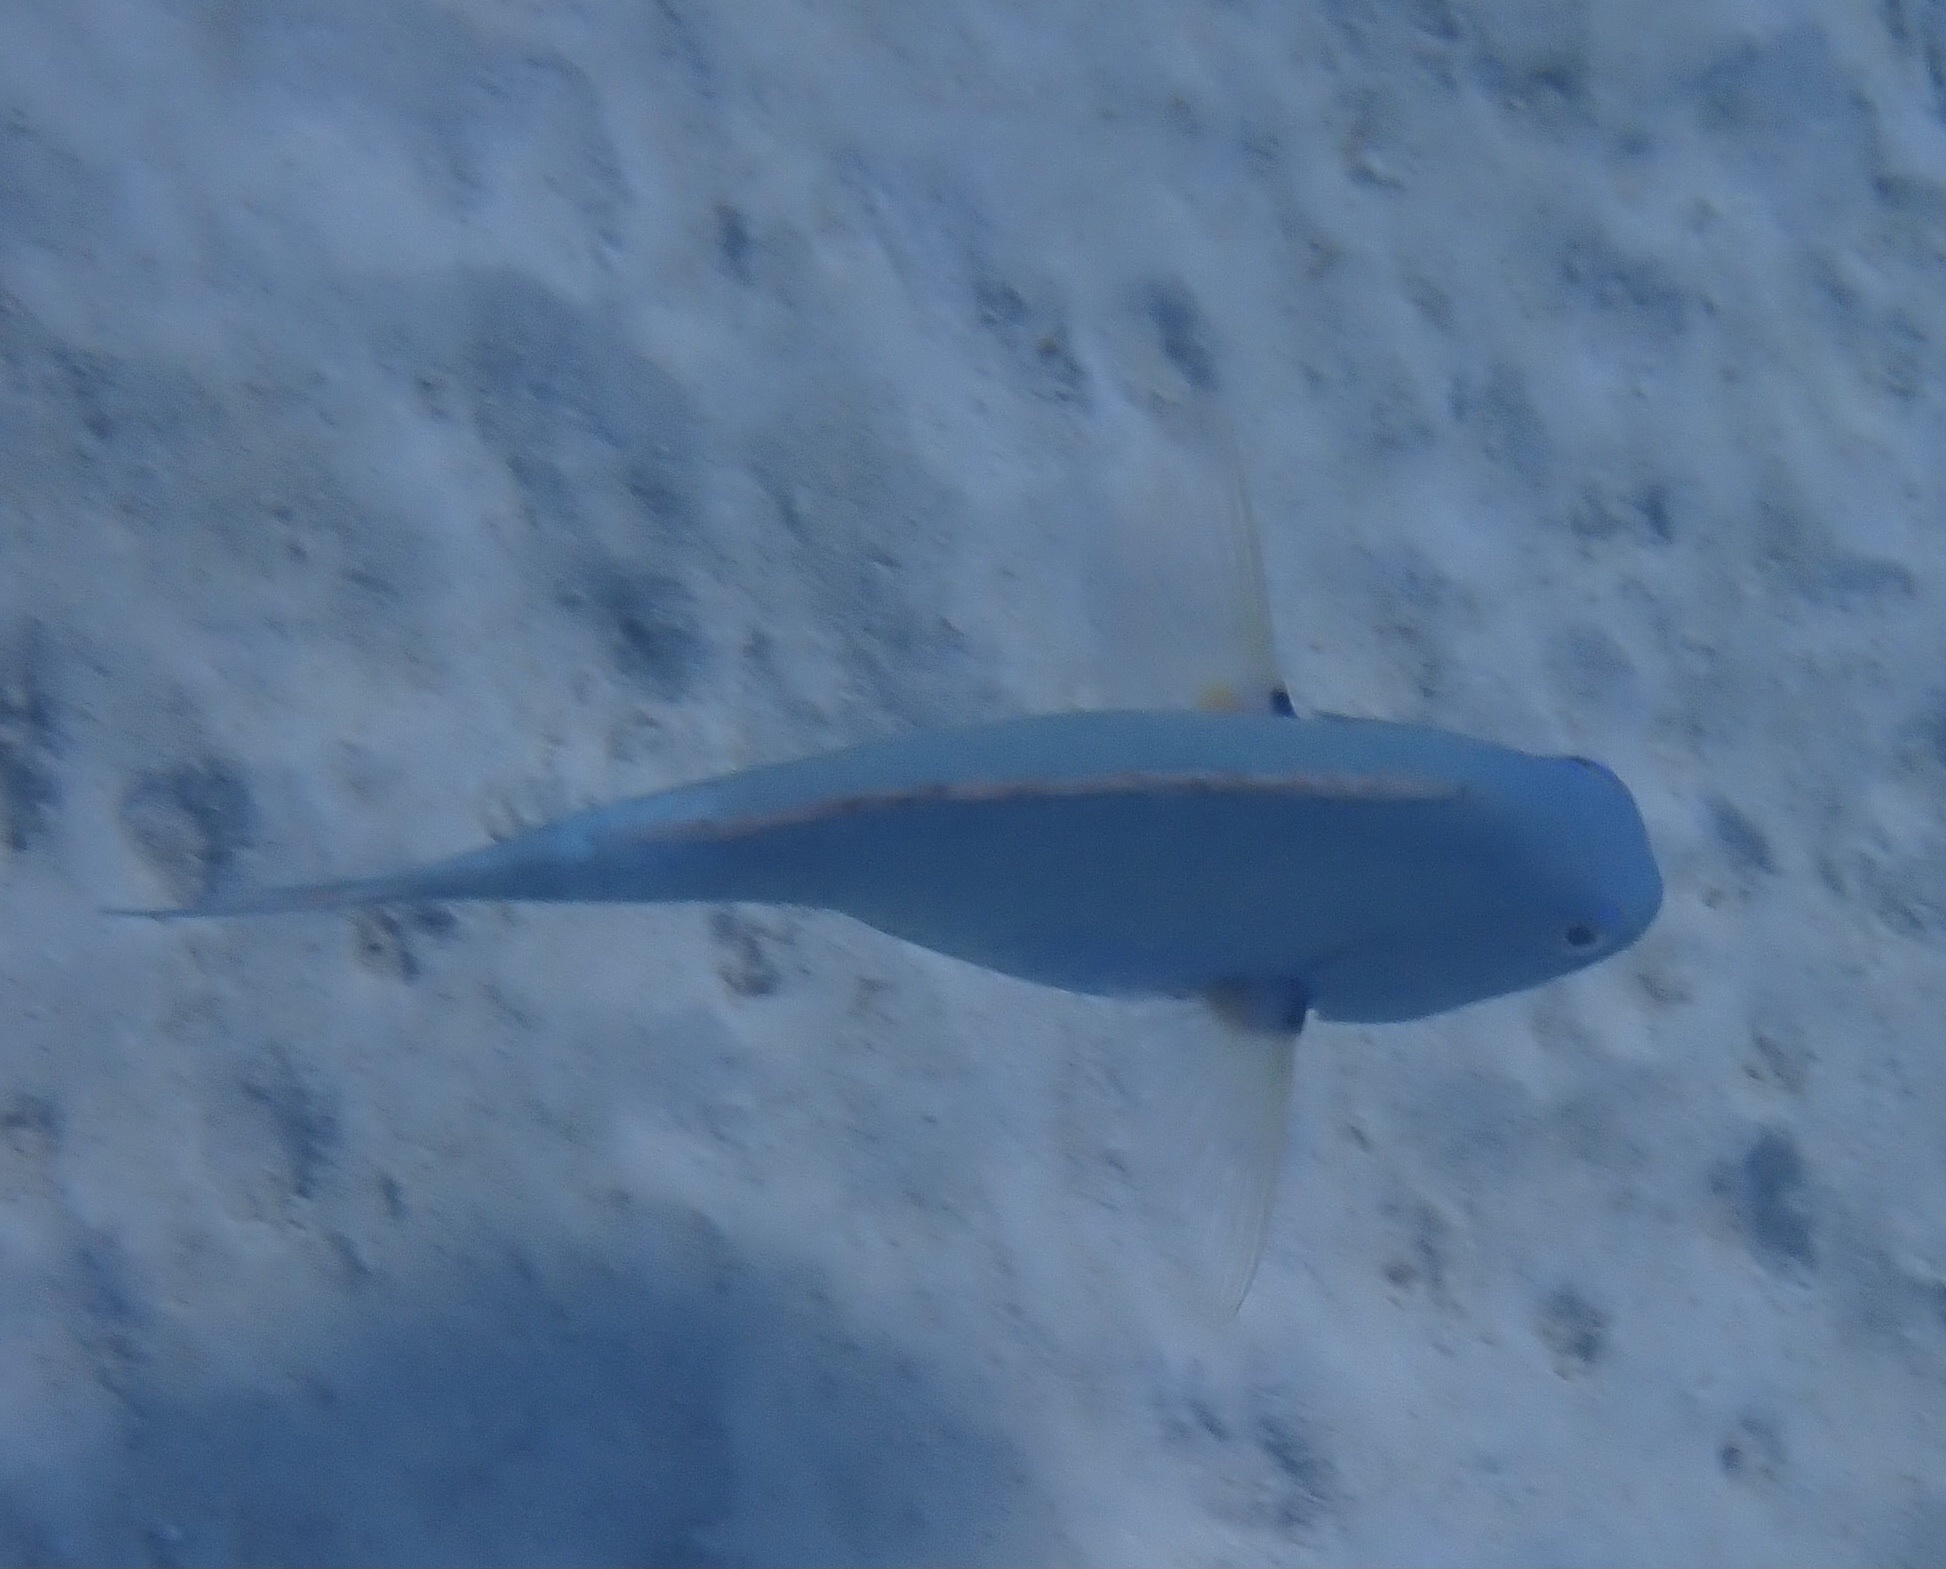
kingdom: Animalia
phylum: Chordata
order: Perciformes
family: Scaridae
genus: Sparisoma
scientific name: Sparisoma chrysopterum
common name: Redtail parrotfish
